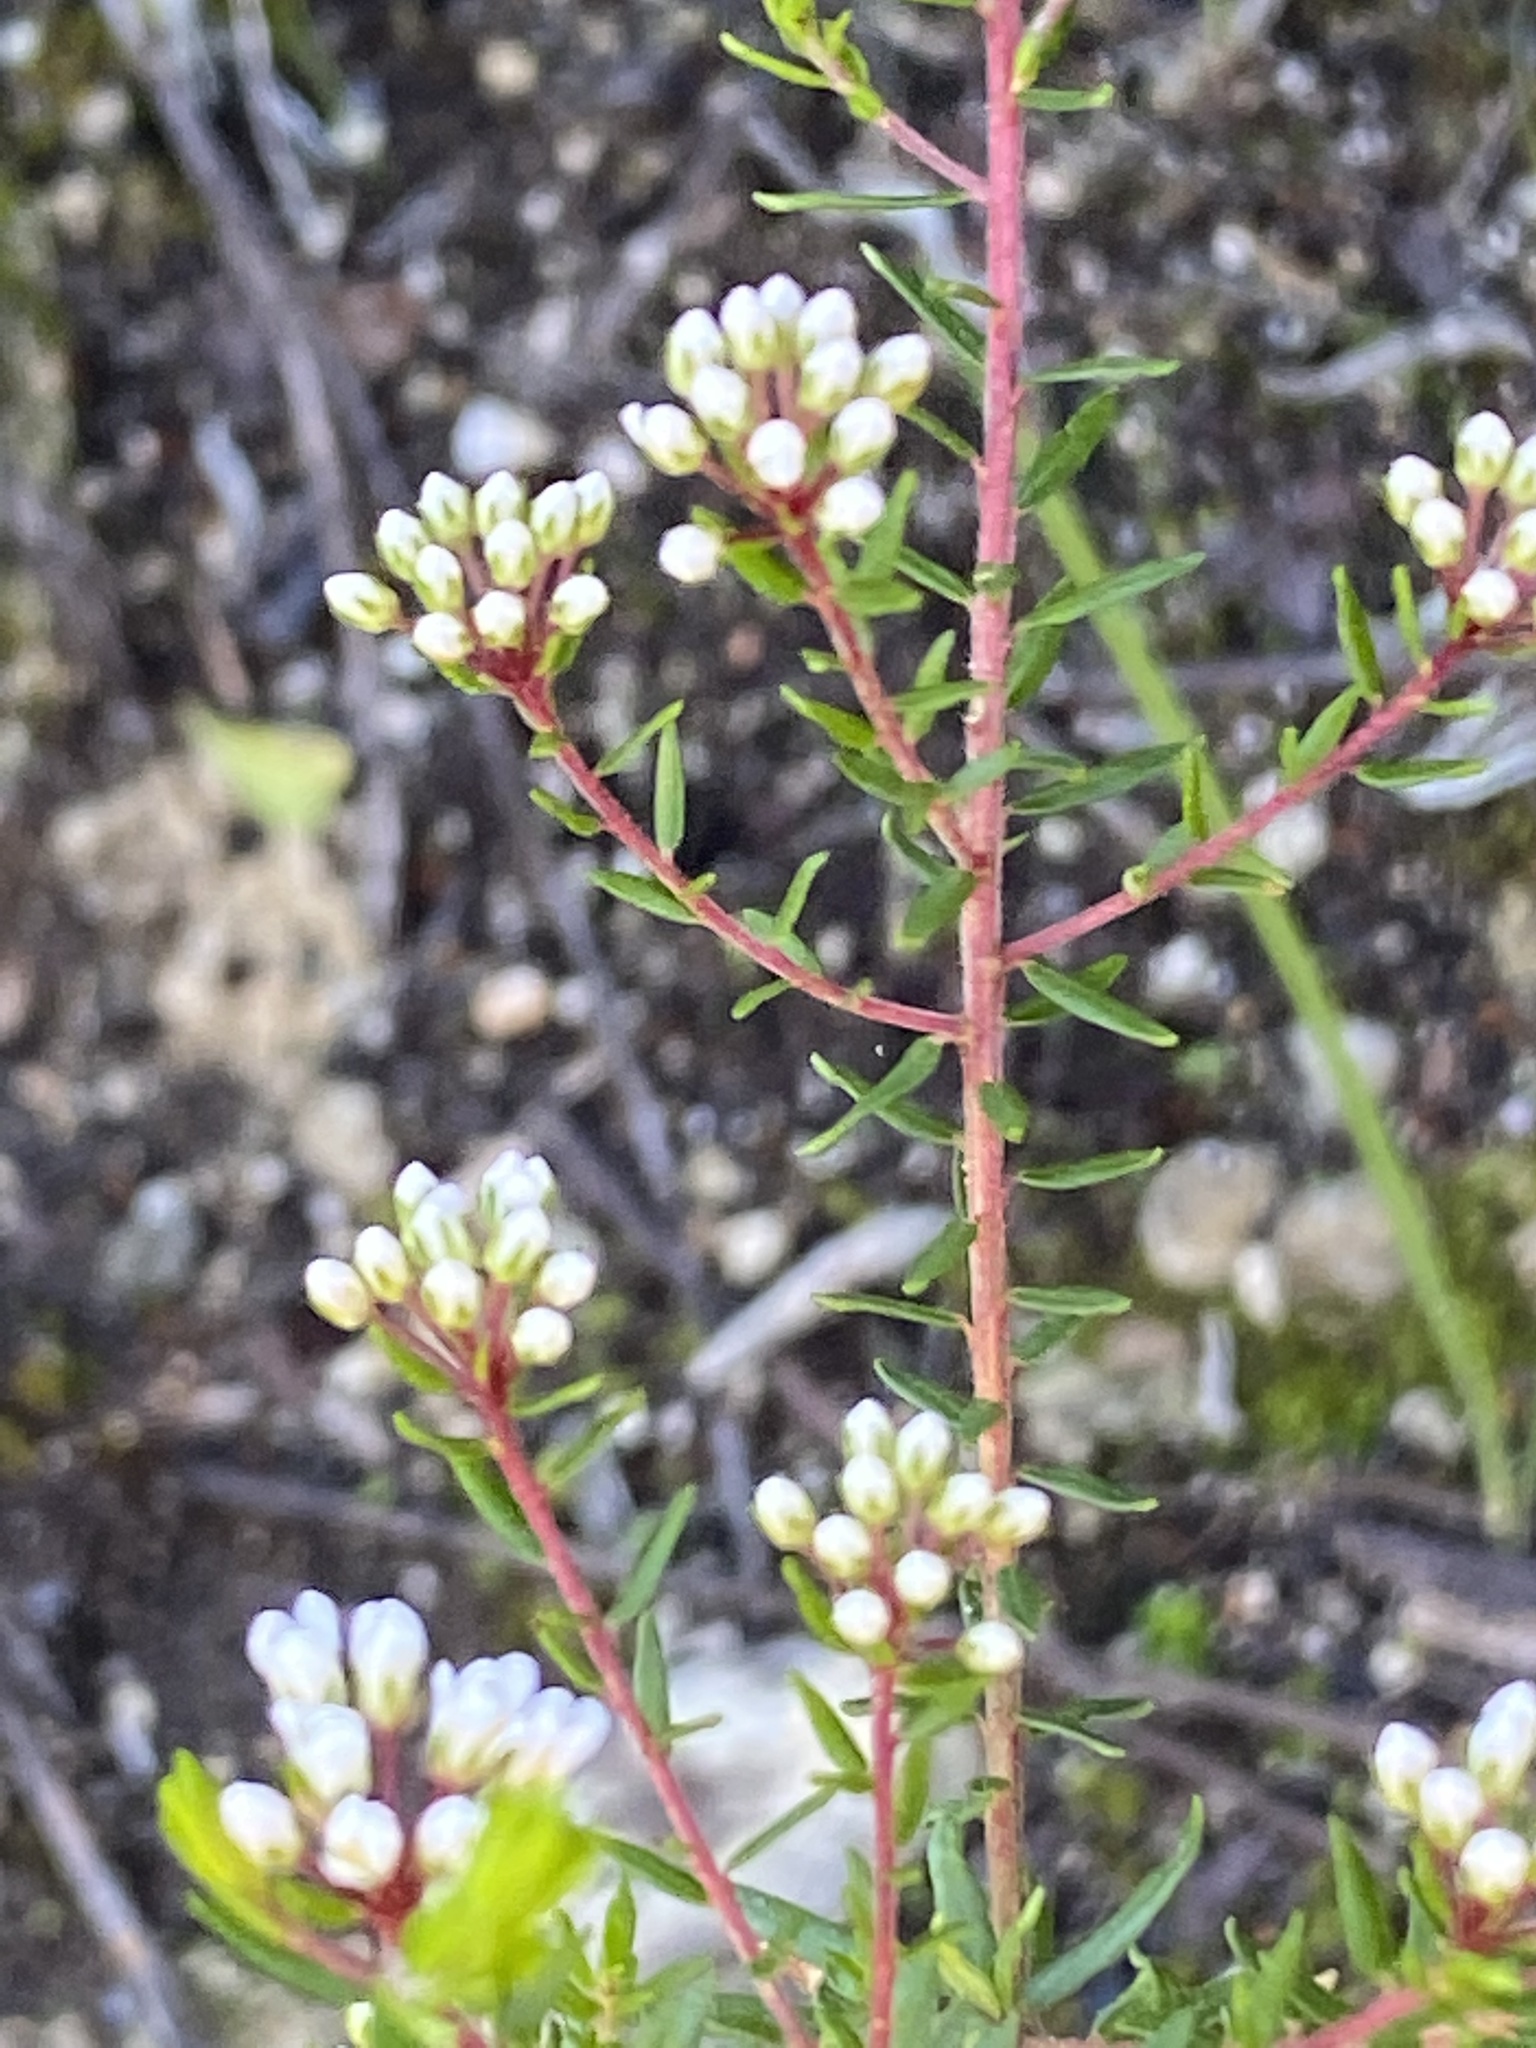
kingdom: Plantae
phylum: Tracheophyta
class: Magnoliopsida
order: Sapindales
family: Rutaceae
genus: Agathosma
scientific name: Agathosma bifida
